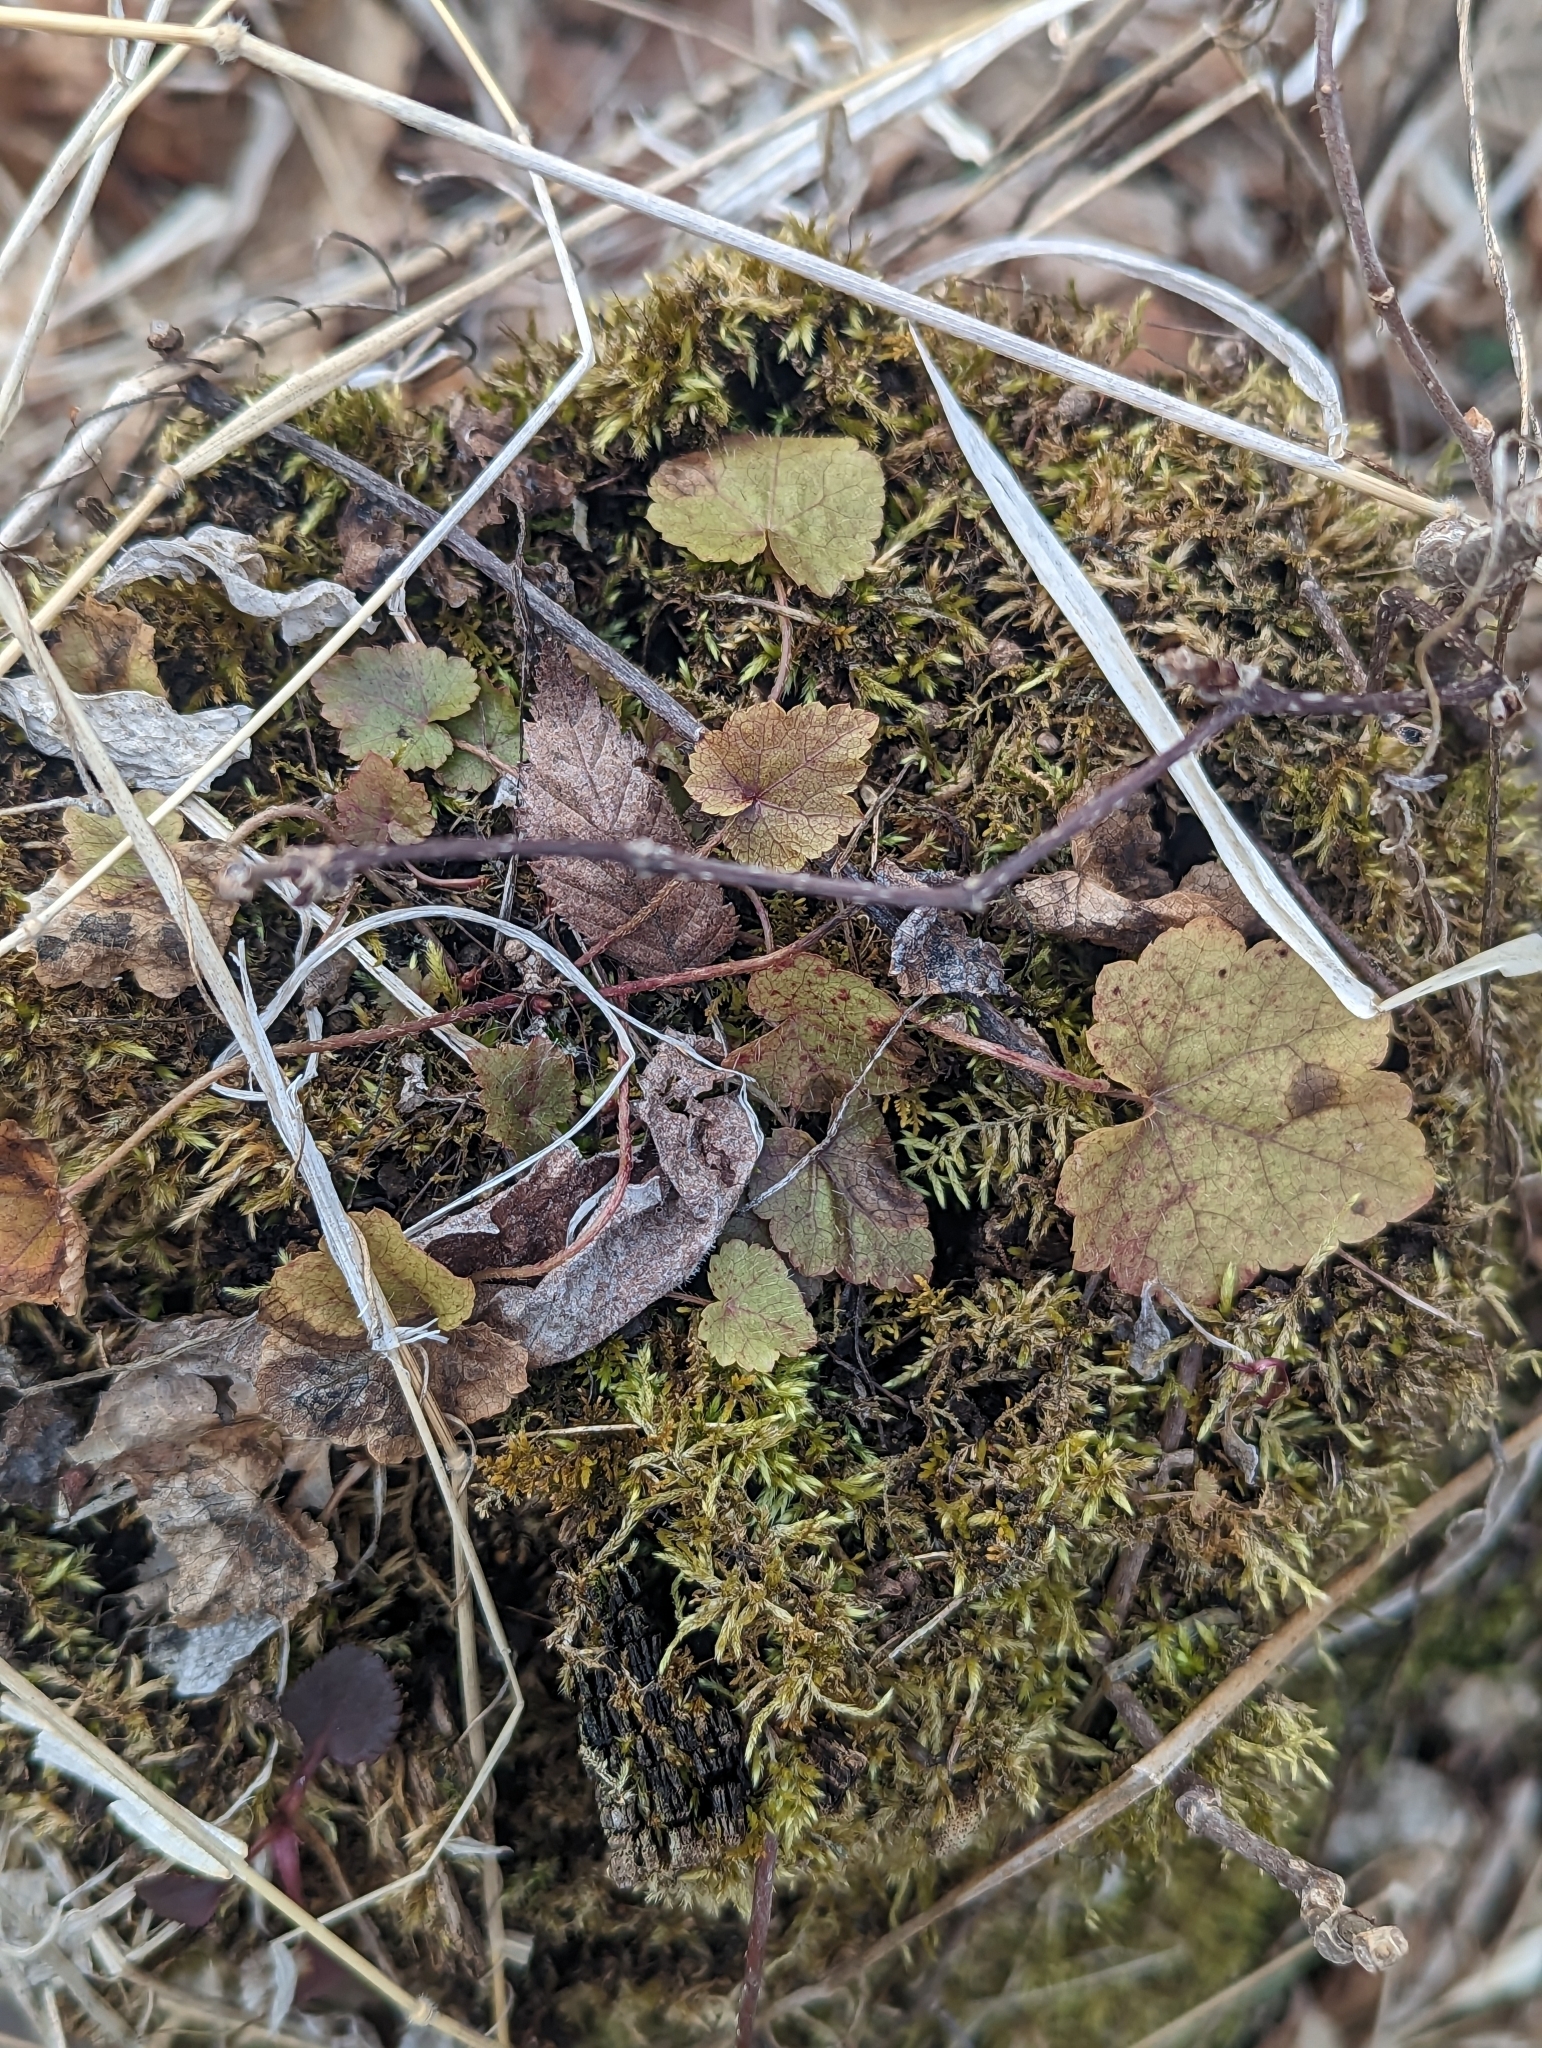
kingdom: Plantae
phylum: Tracheophyta
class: Magnoliopsida
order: Saxifragales
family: Saxifragaceae
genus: Mitella
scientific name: Mitella diphylla
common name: Coolwort
